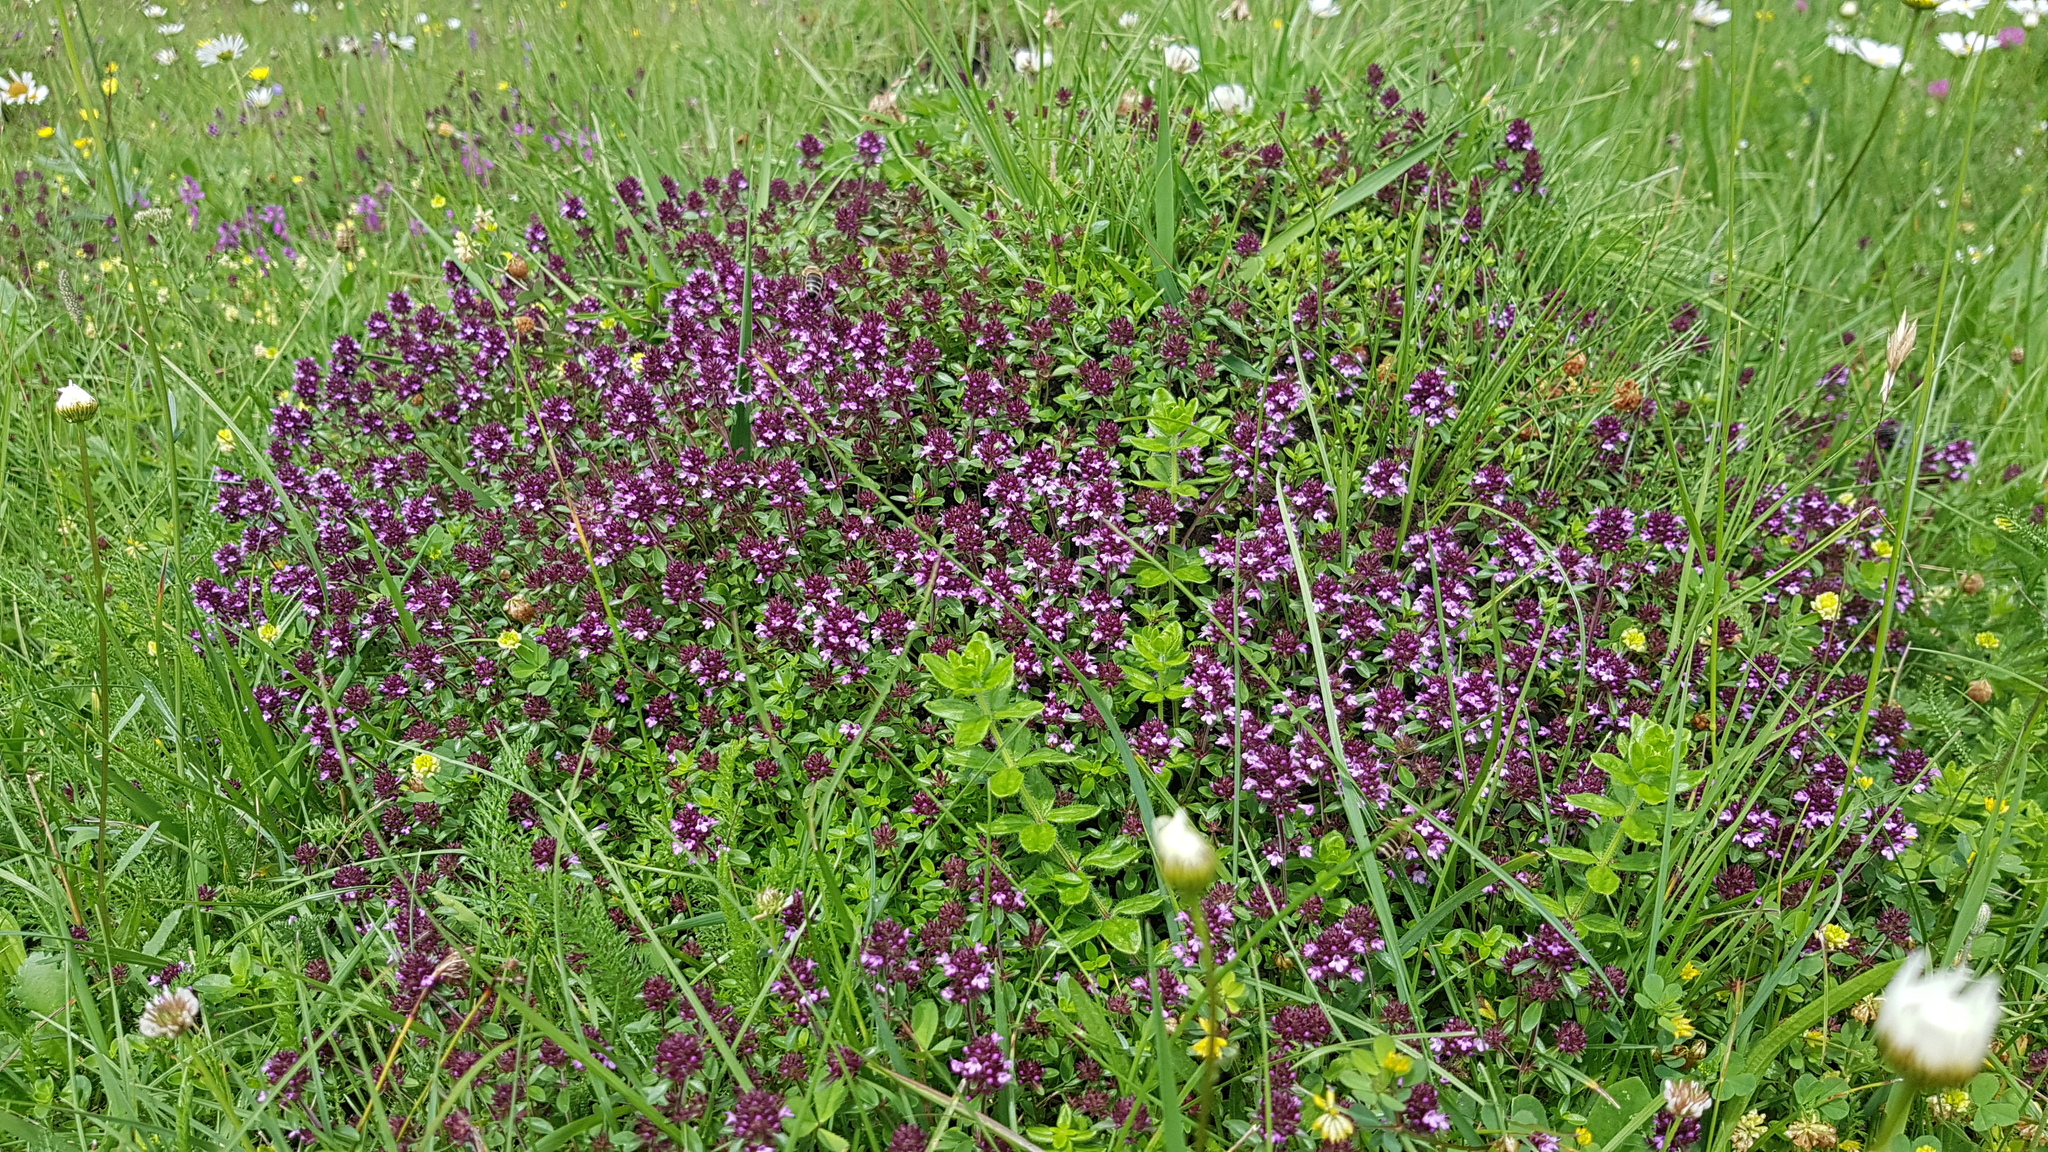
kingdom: Plantae
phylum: Tracheophyta
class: Magnoliopsida
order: Lamiales
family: Lamiaceae
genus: Thymus
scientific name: Thymus pulegioides
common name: Large thyme
